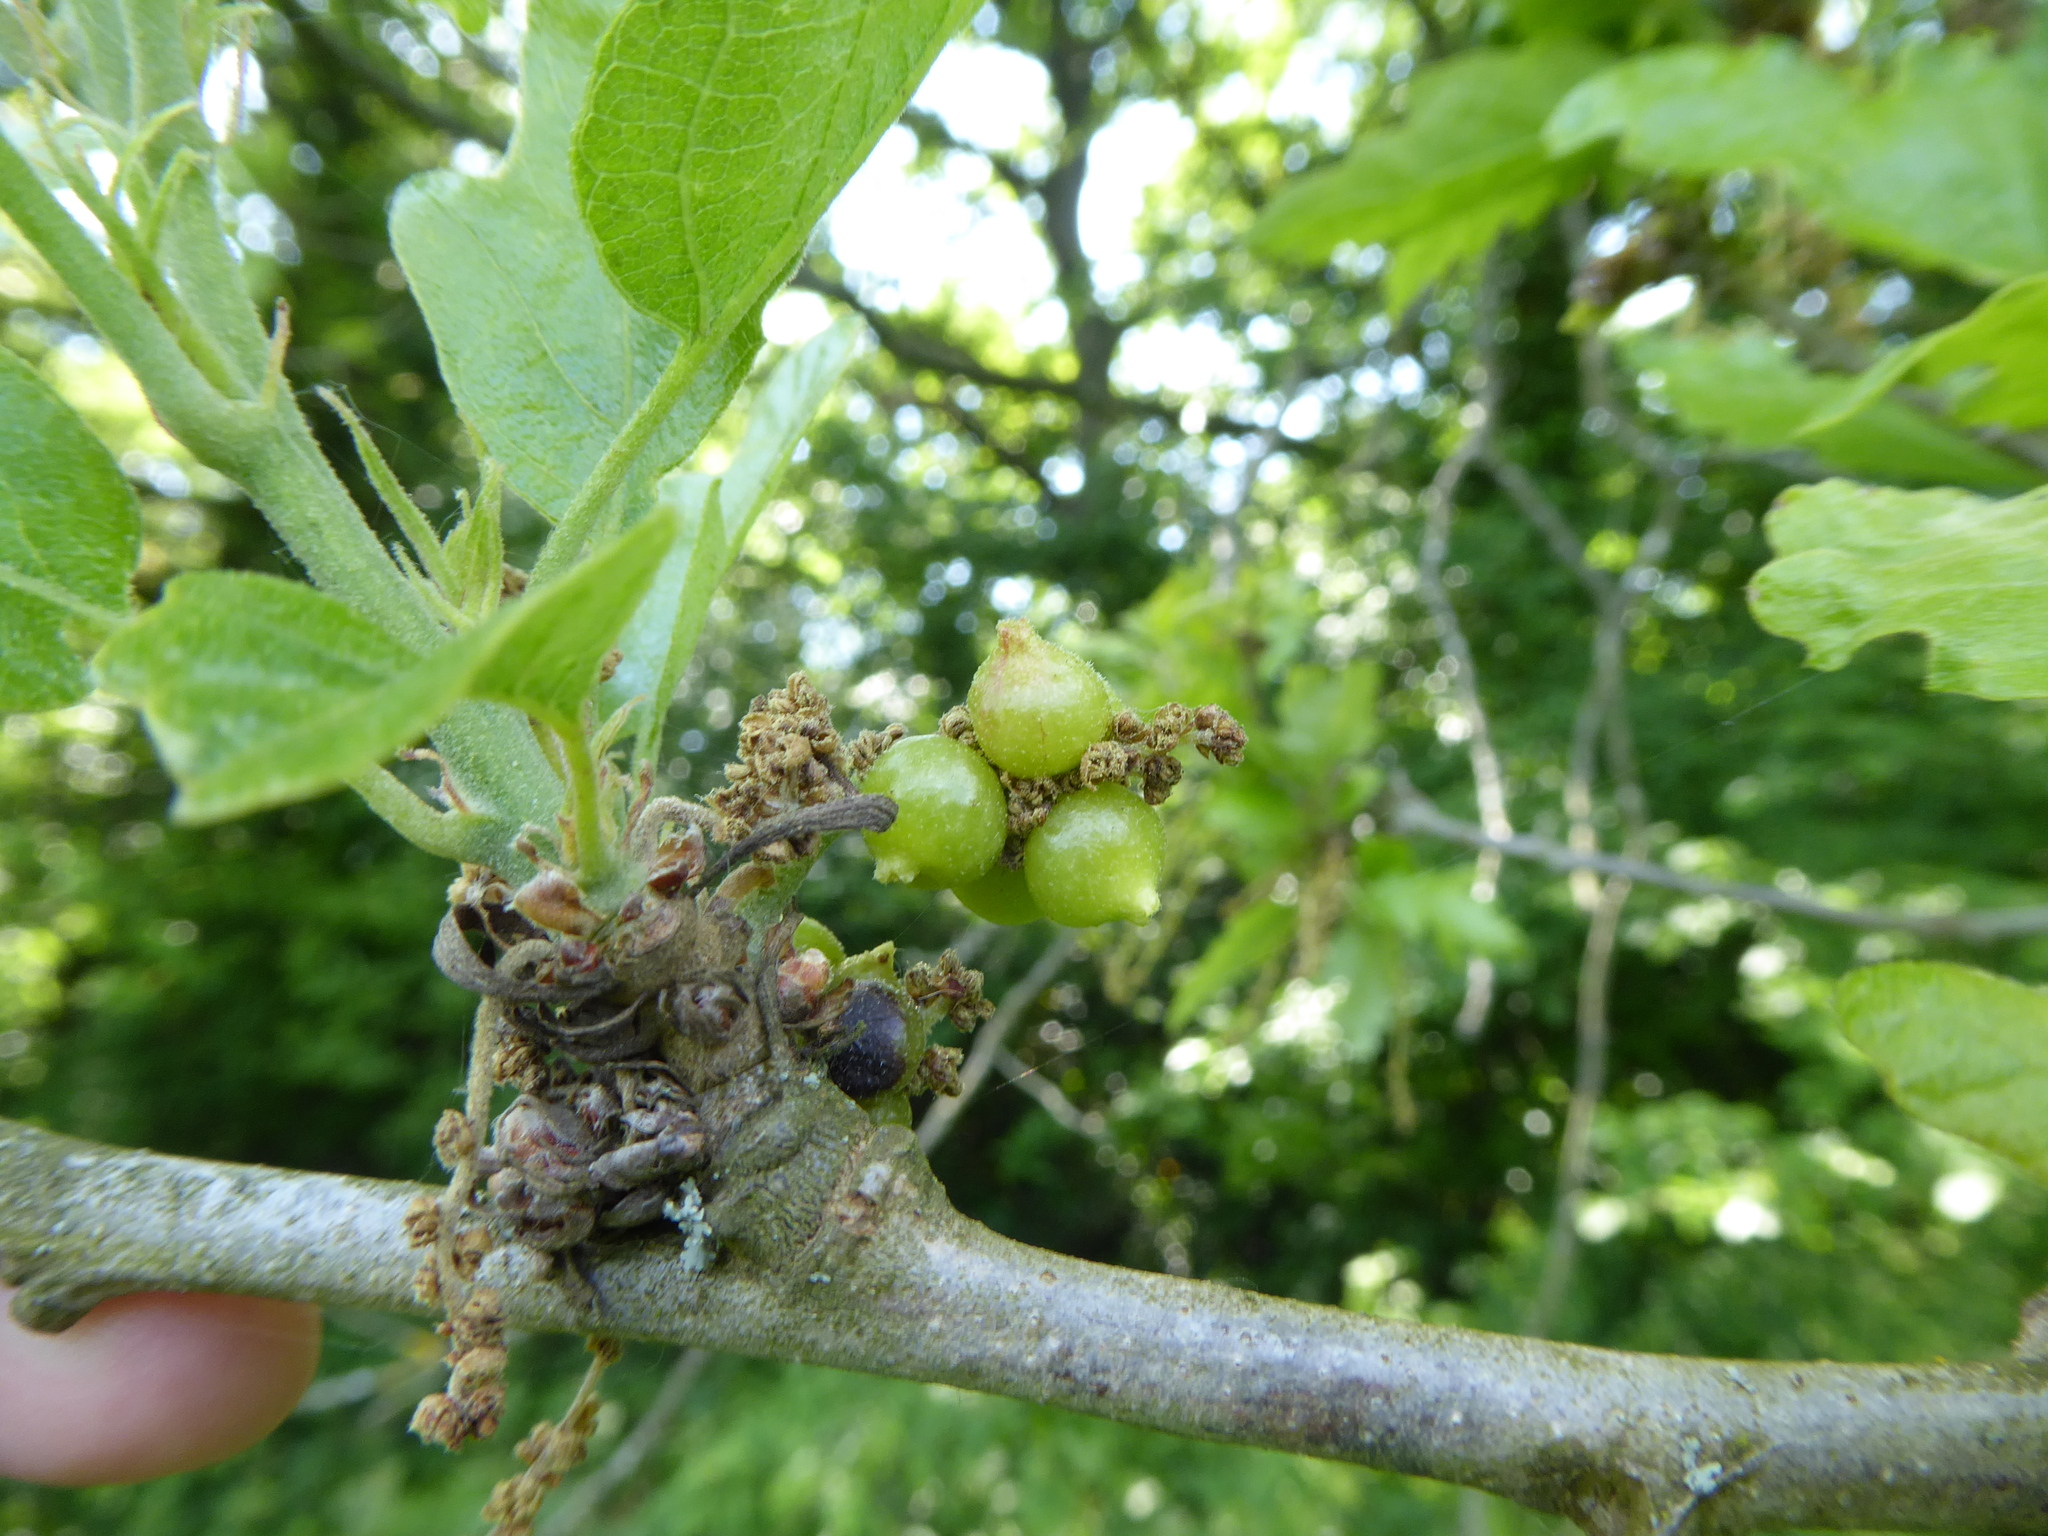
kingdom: Animalia
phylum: Arthropoda
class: Insecta
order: Hymenoptera
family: Cynipidae
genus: Andricus
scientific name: Andricus grossulariae
